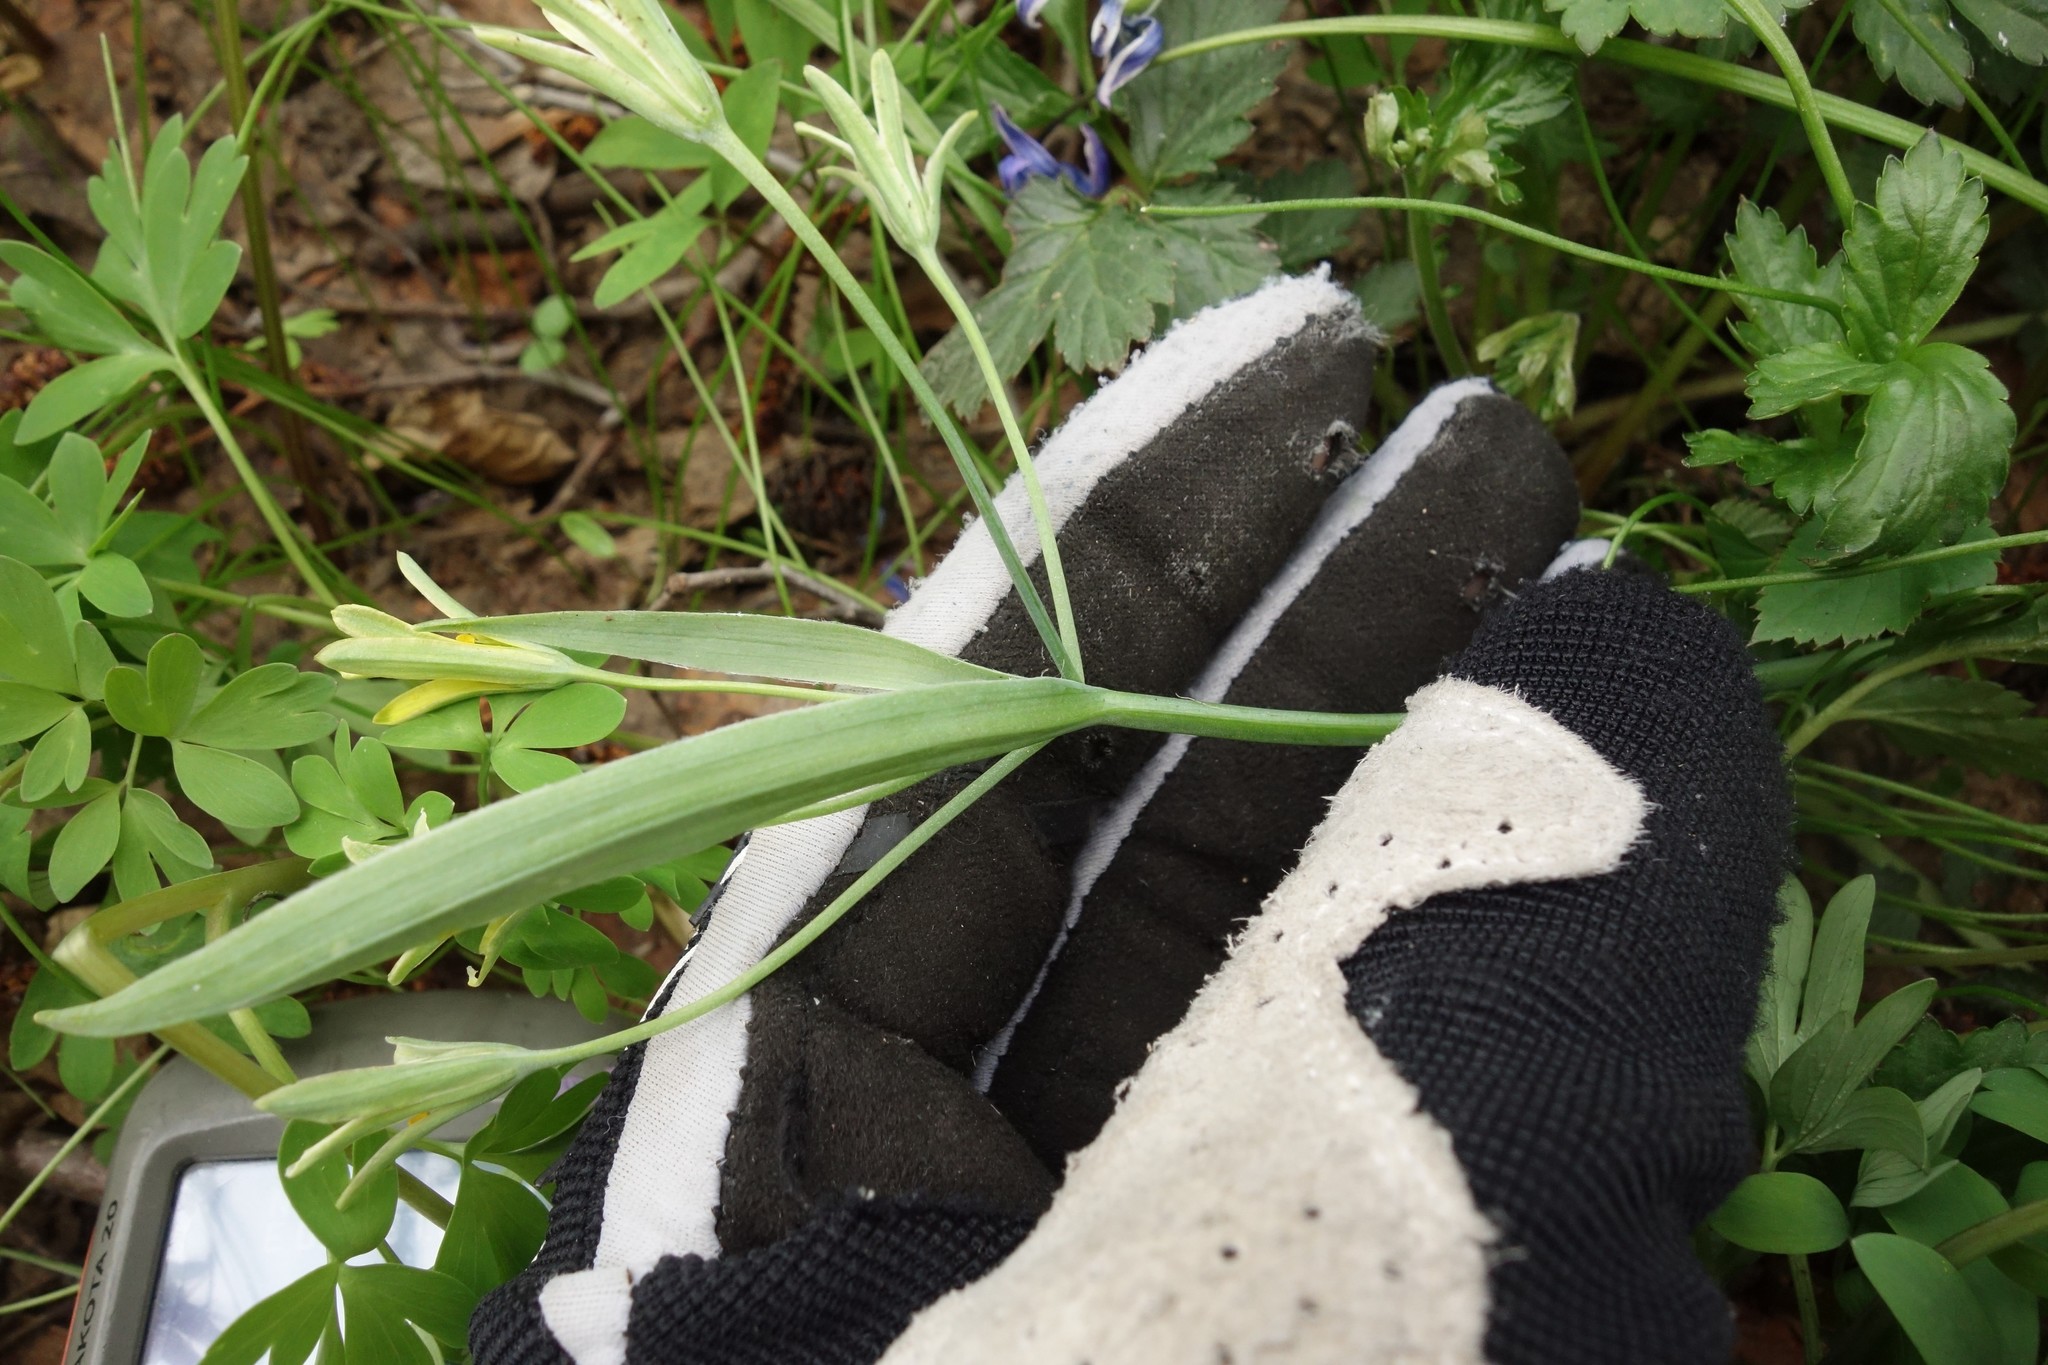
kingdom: Plantae
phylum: Tracheophyta
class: Liliopsida
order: Liliales
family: Liliaceae
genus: Gagea
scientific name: Gagea lutea
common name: Yellow star-of-bethlehem
